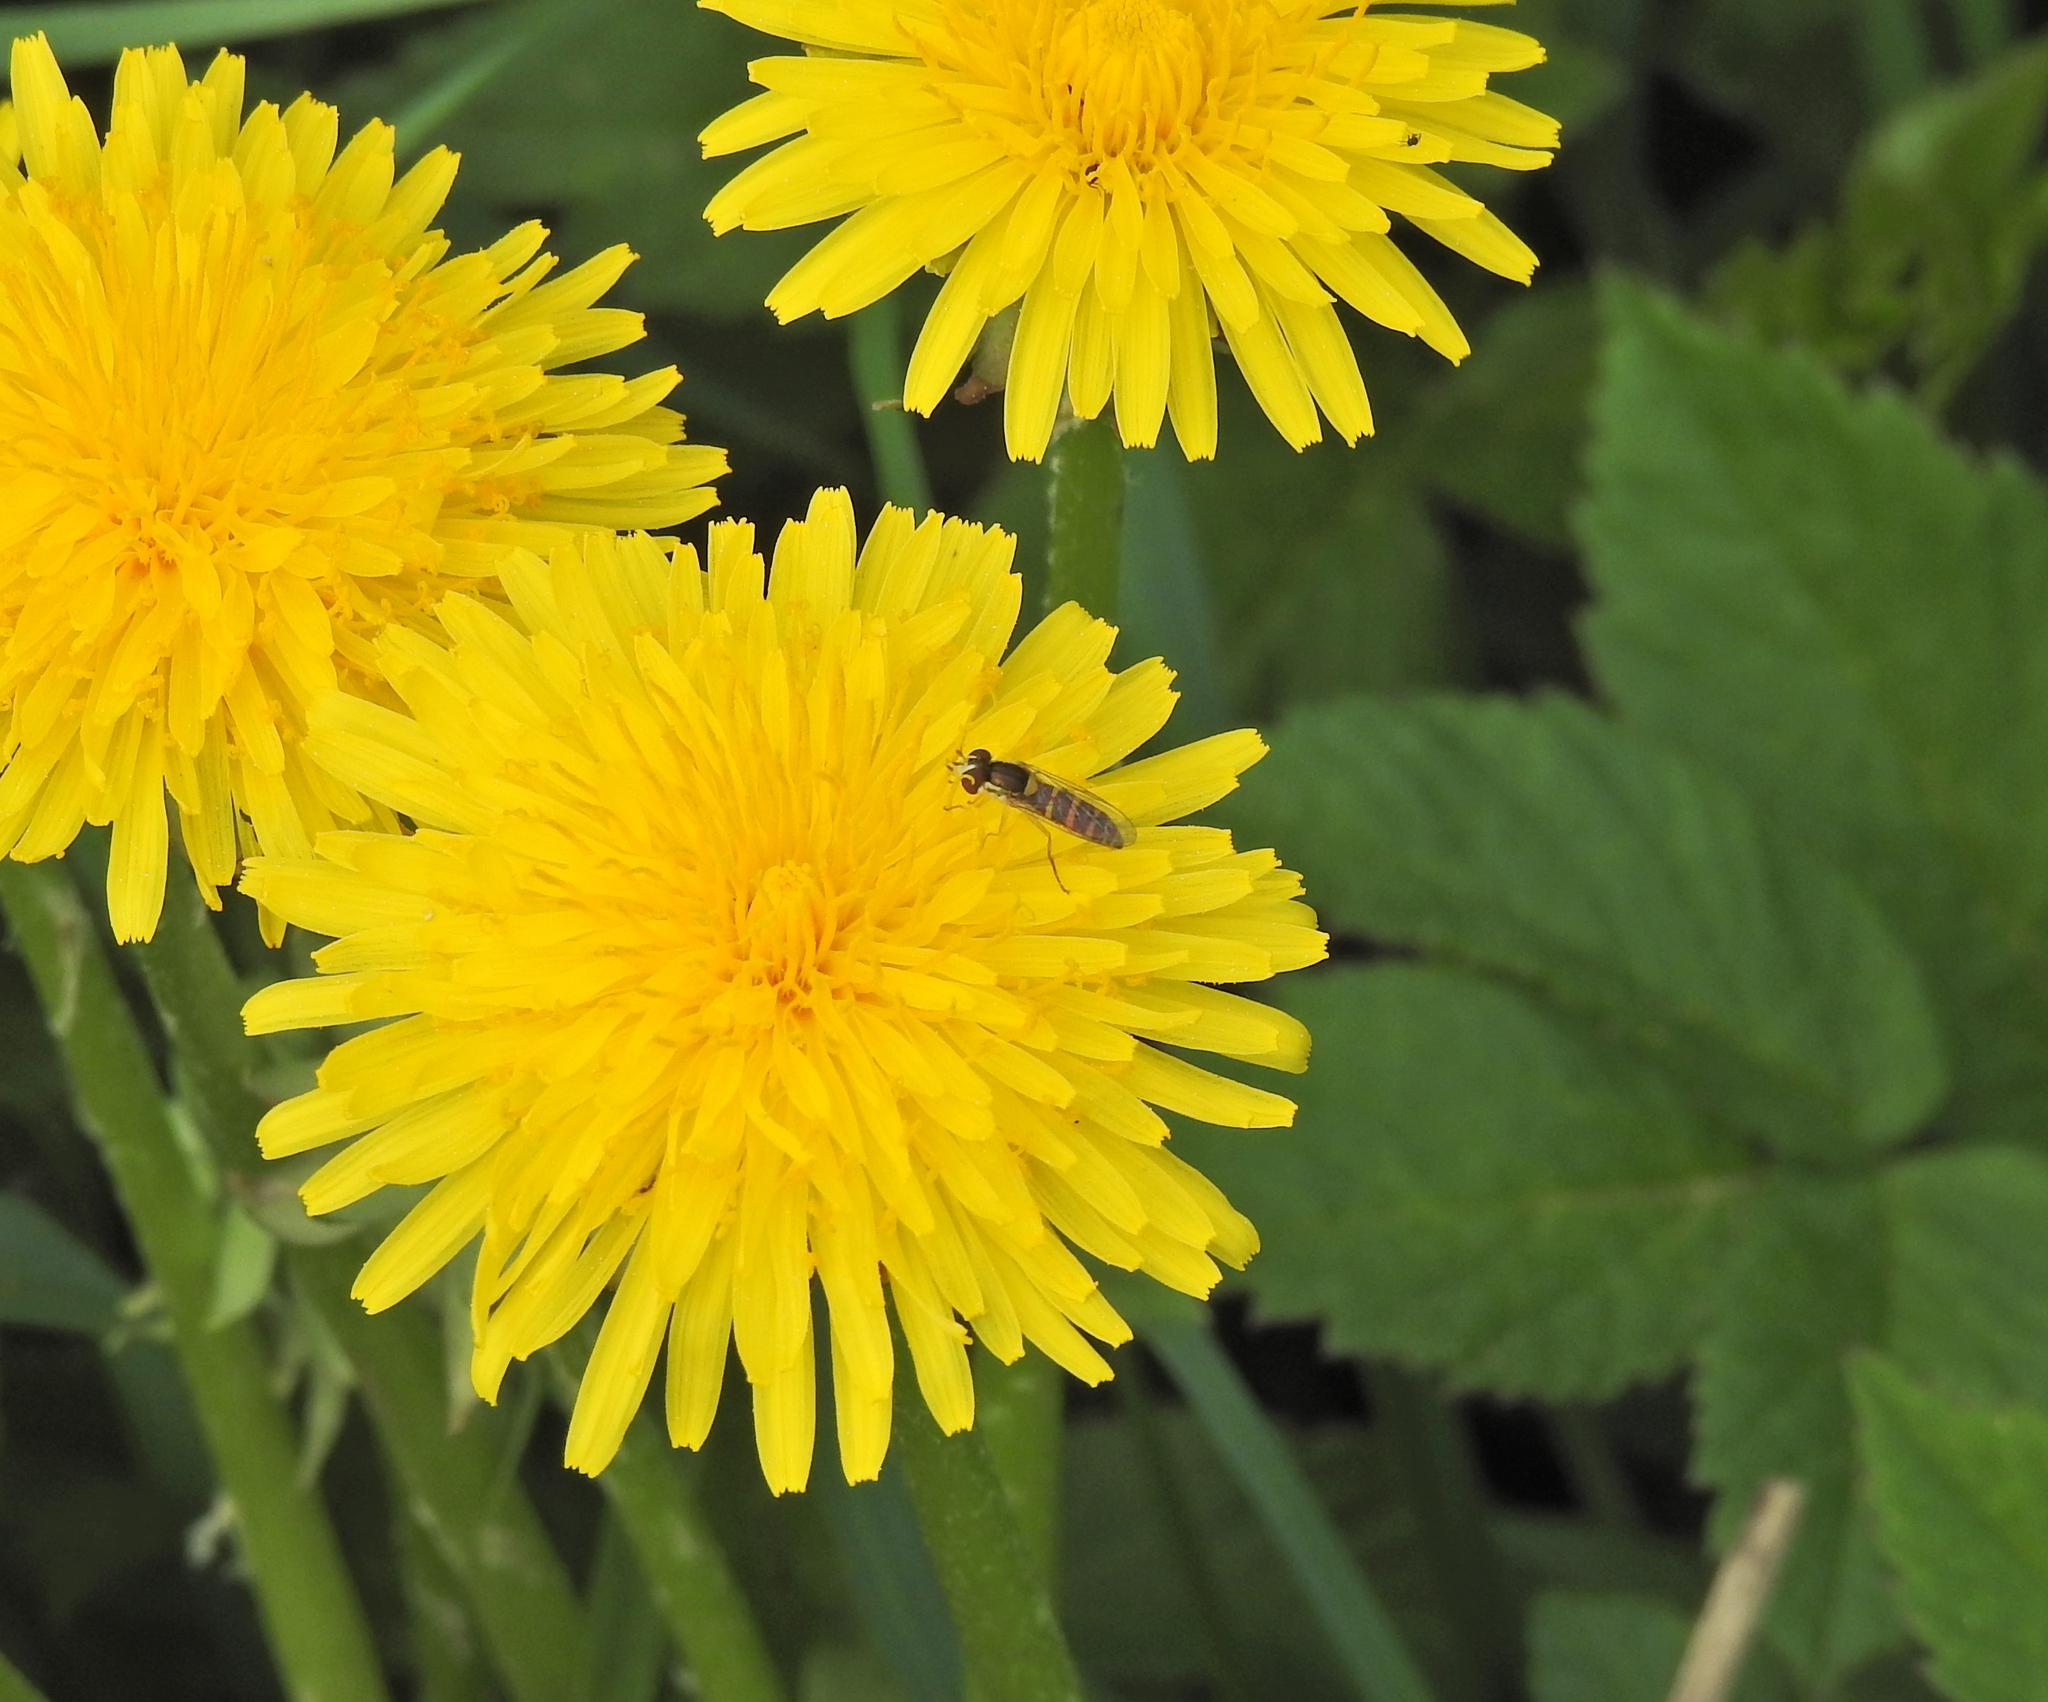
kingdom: Animalia
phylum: Arthropoda
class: Insecta
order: Diptera
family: Syrphidae
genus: Sphaerophoria
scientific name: Sphaerophoria
